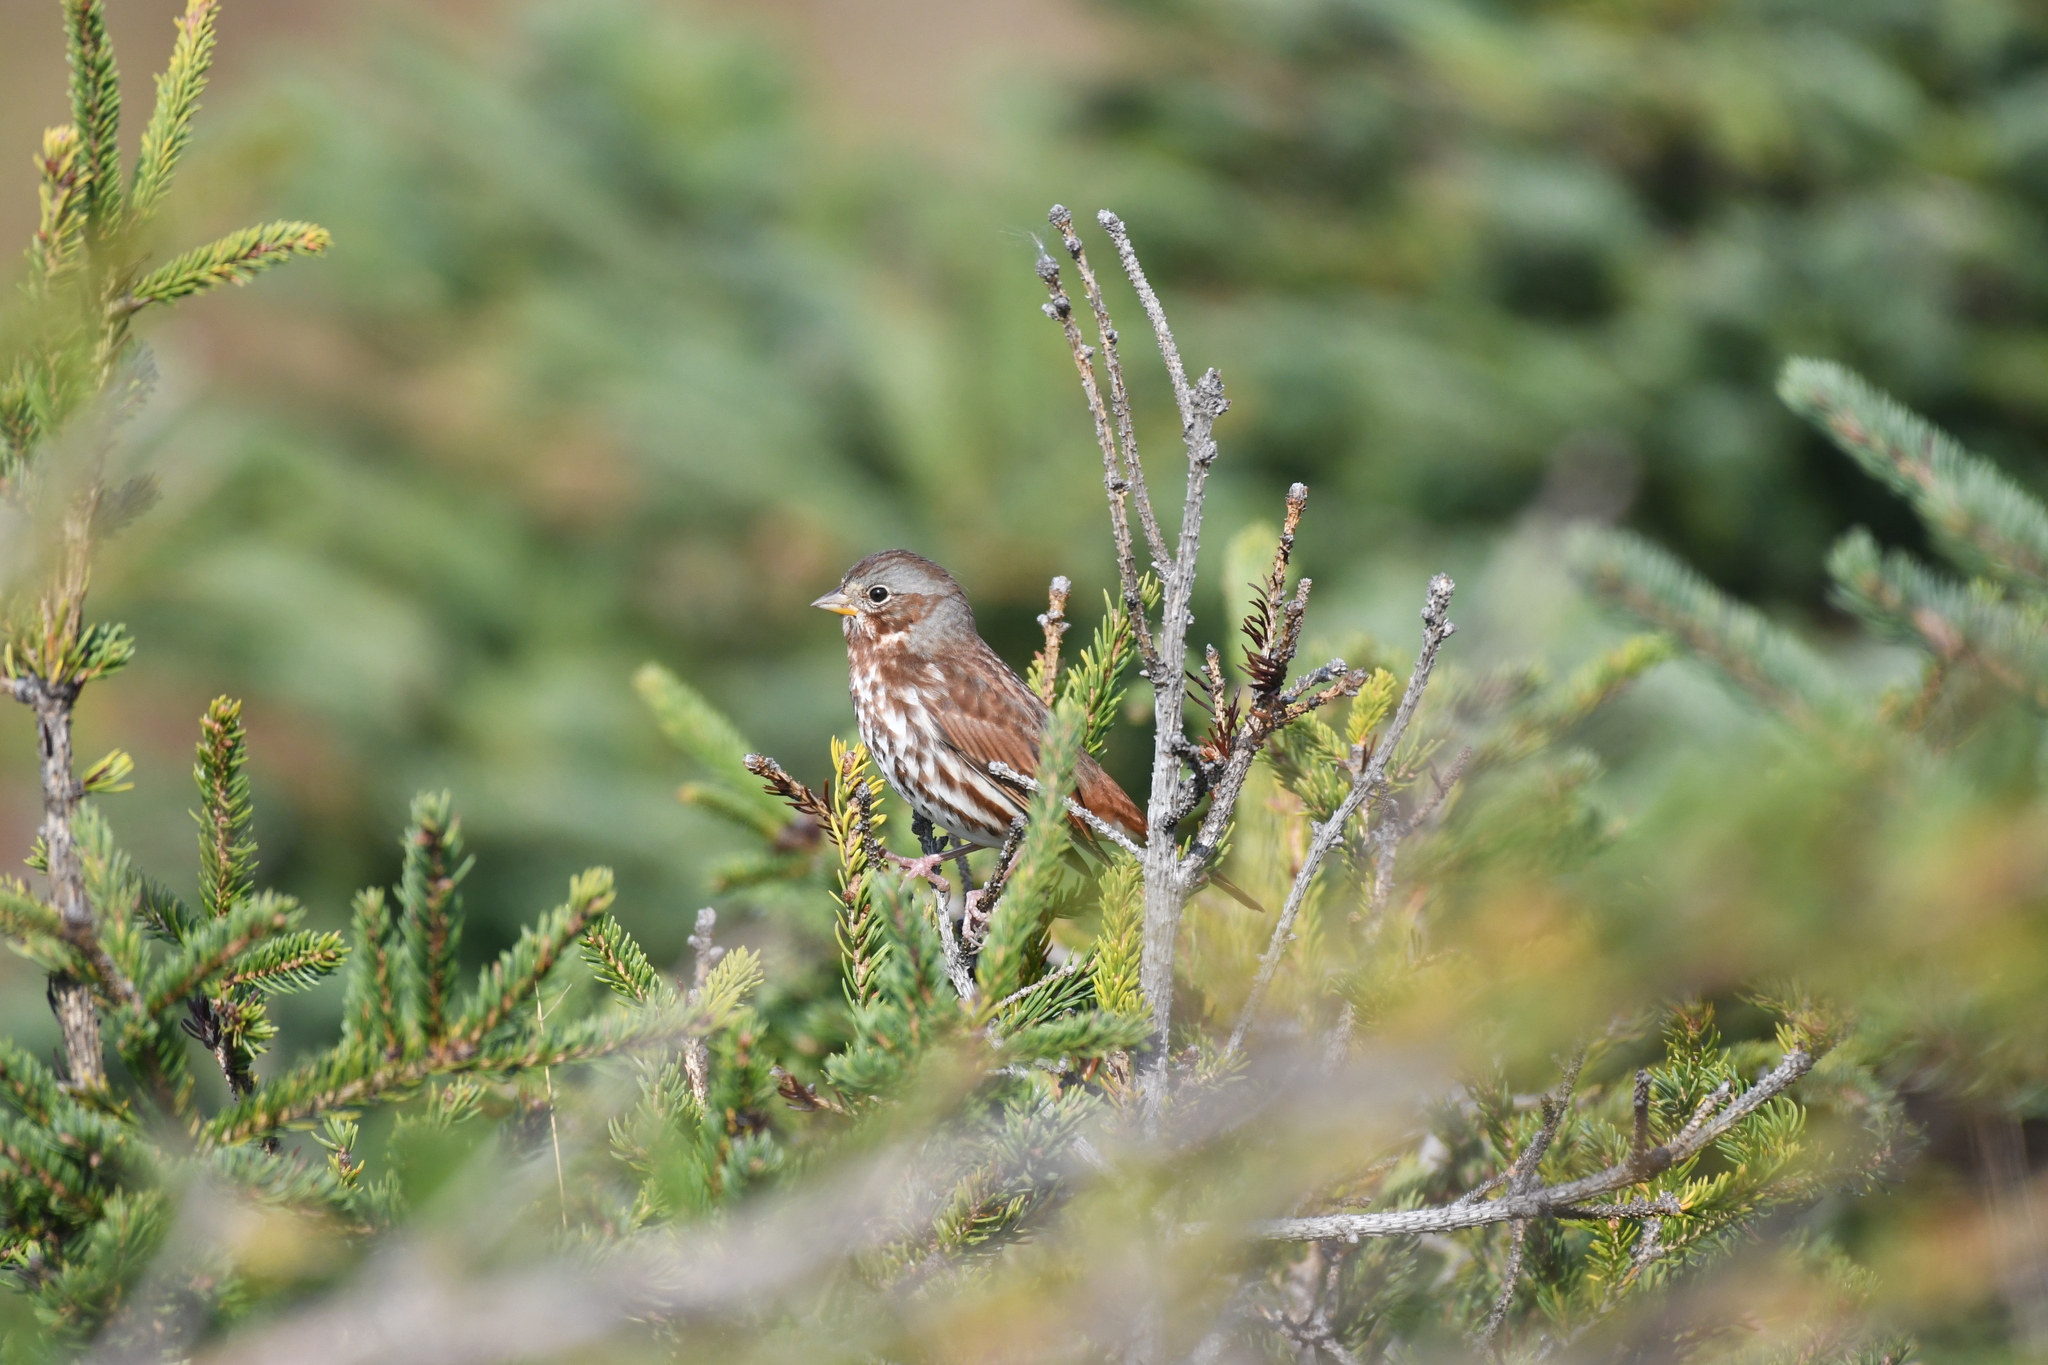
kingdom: Animalia
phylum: Chordata
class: Aves
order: Passeriformes
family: Passerellidae
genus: Passerella
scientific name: Passerella iliaca
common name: Fox sparrow
